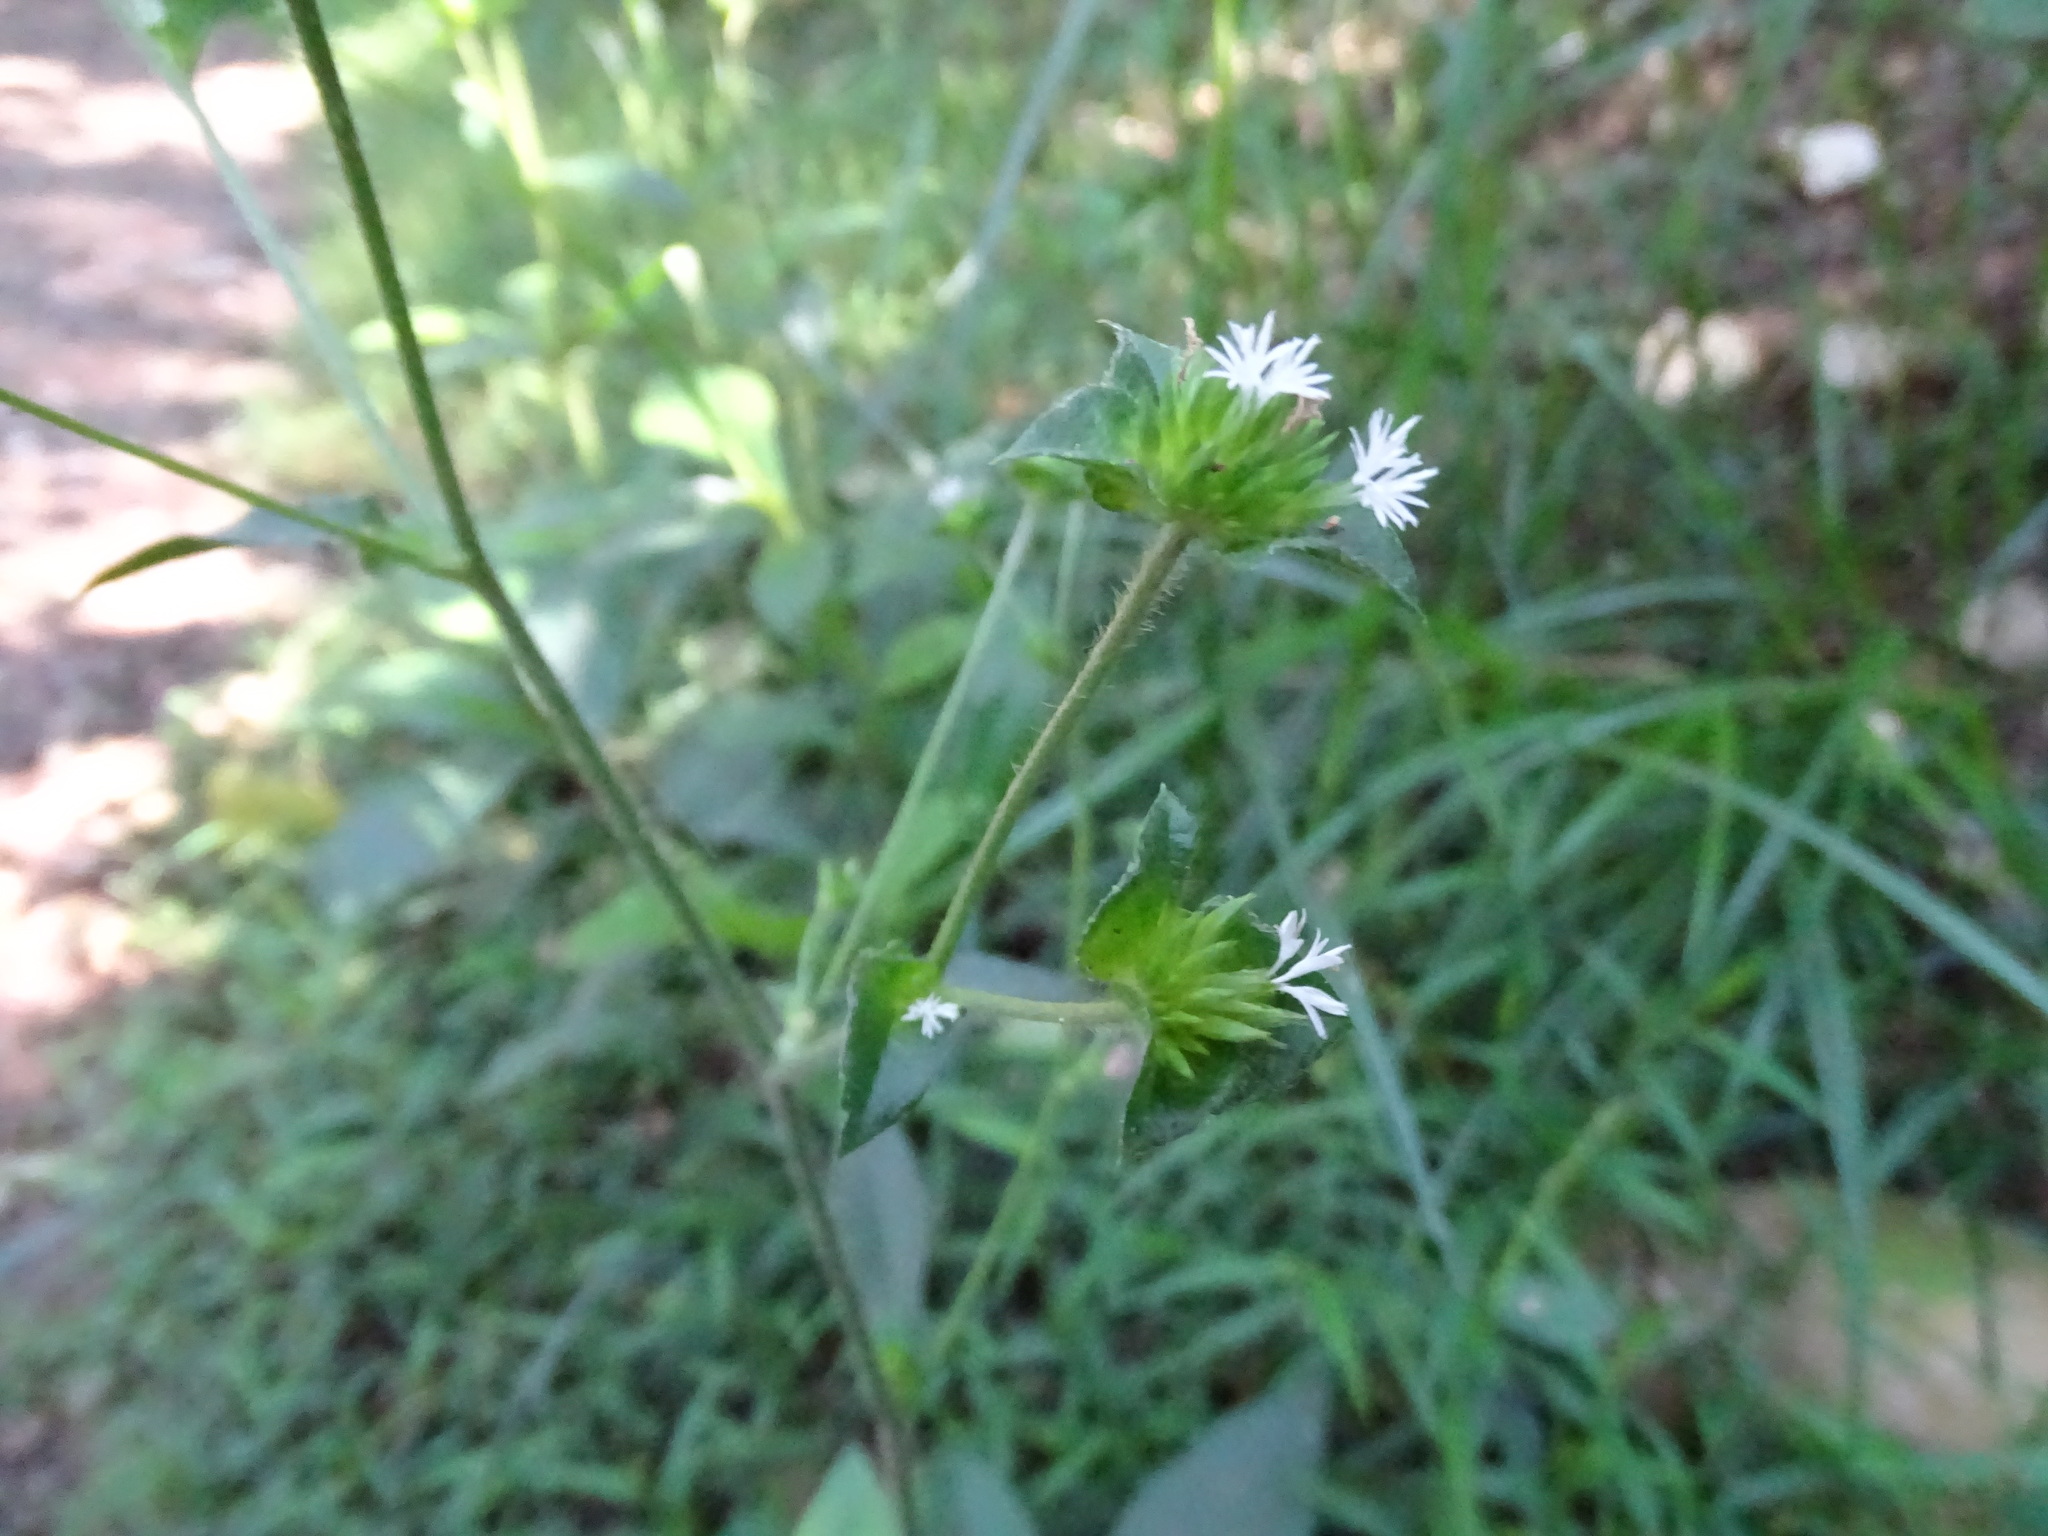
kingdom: Plantae
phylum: Tracheophyta
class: Magnoliopsida
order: Asterales
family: Asteraceae
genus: Elephantopus
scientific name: Elephantopus mollis
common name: Soft elephantsfoot
